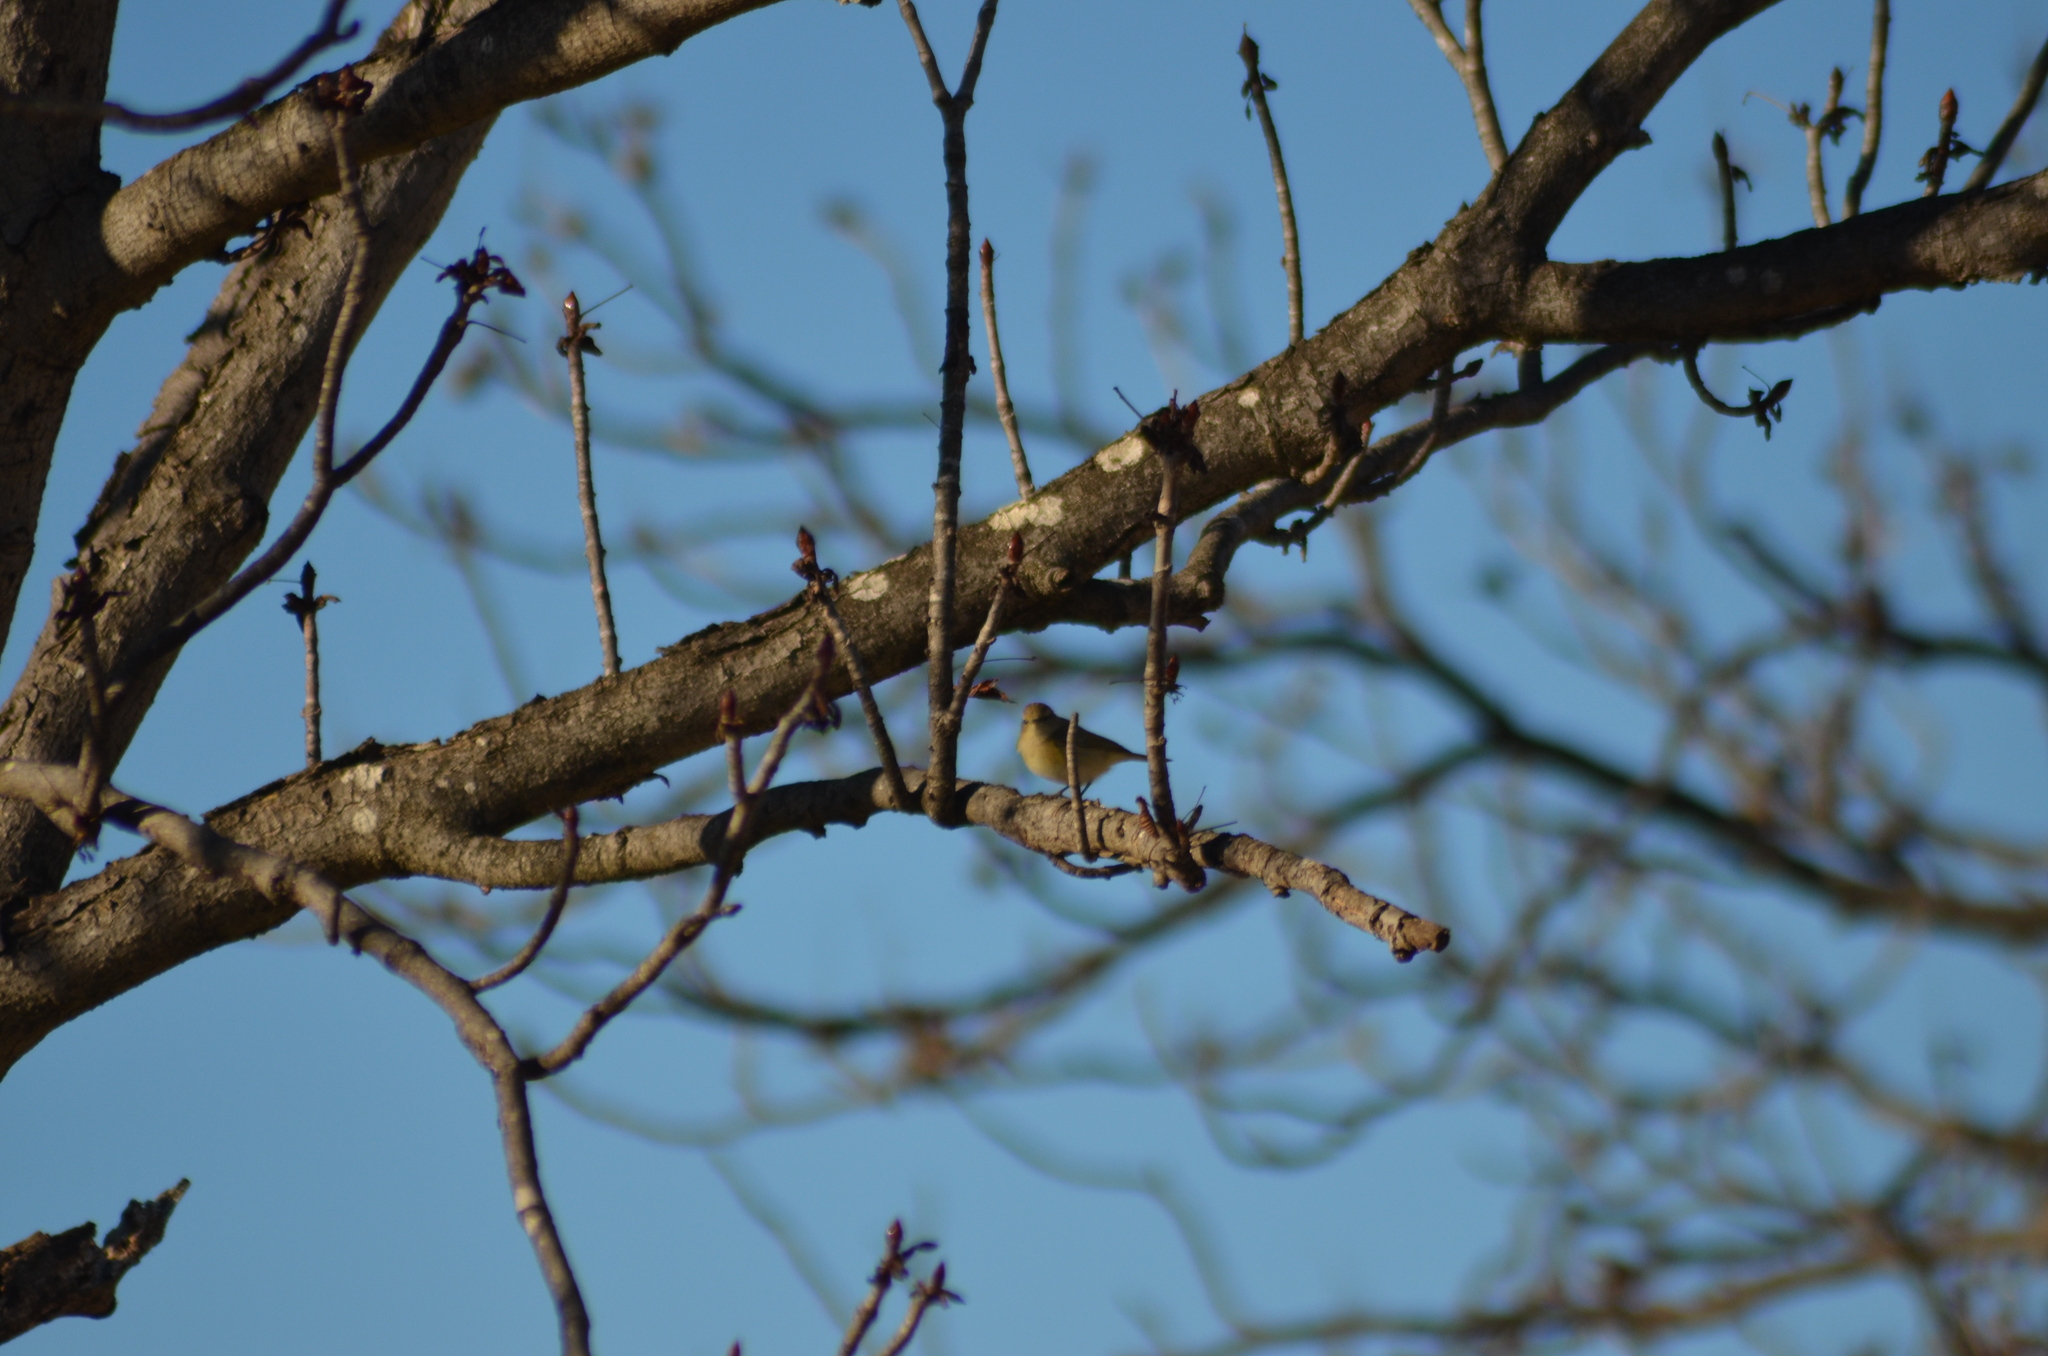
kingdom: Animalia
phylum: Chordata
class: Aves
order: Passeriformes
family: Phylloscopidae
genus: Phylloscopus
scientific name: Phylloscopus collybita
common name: Common chiffchaff
